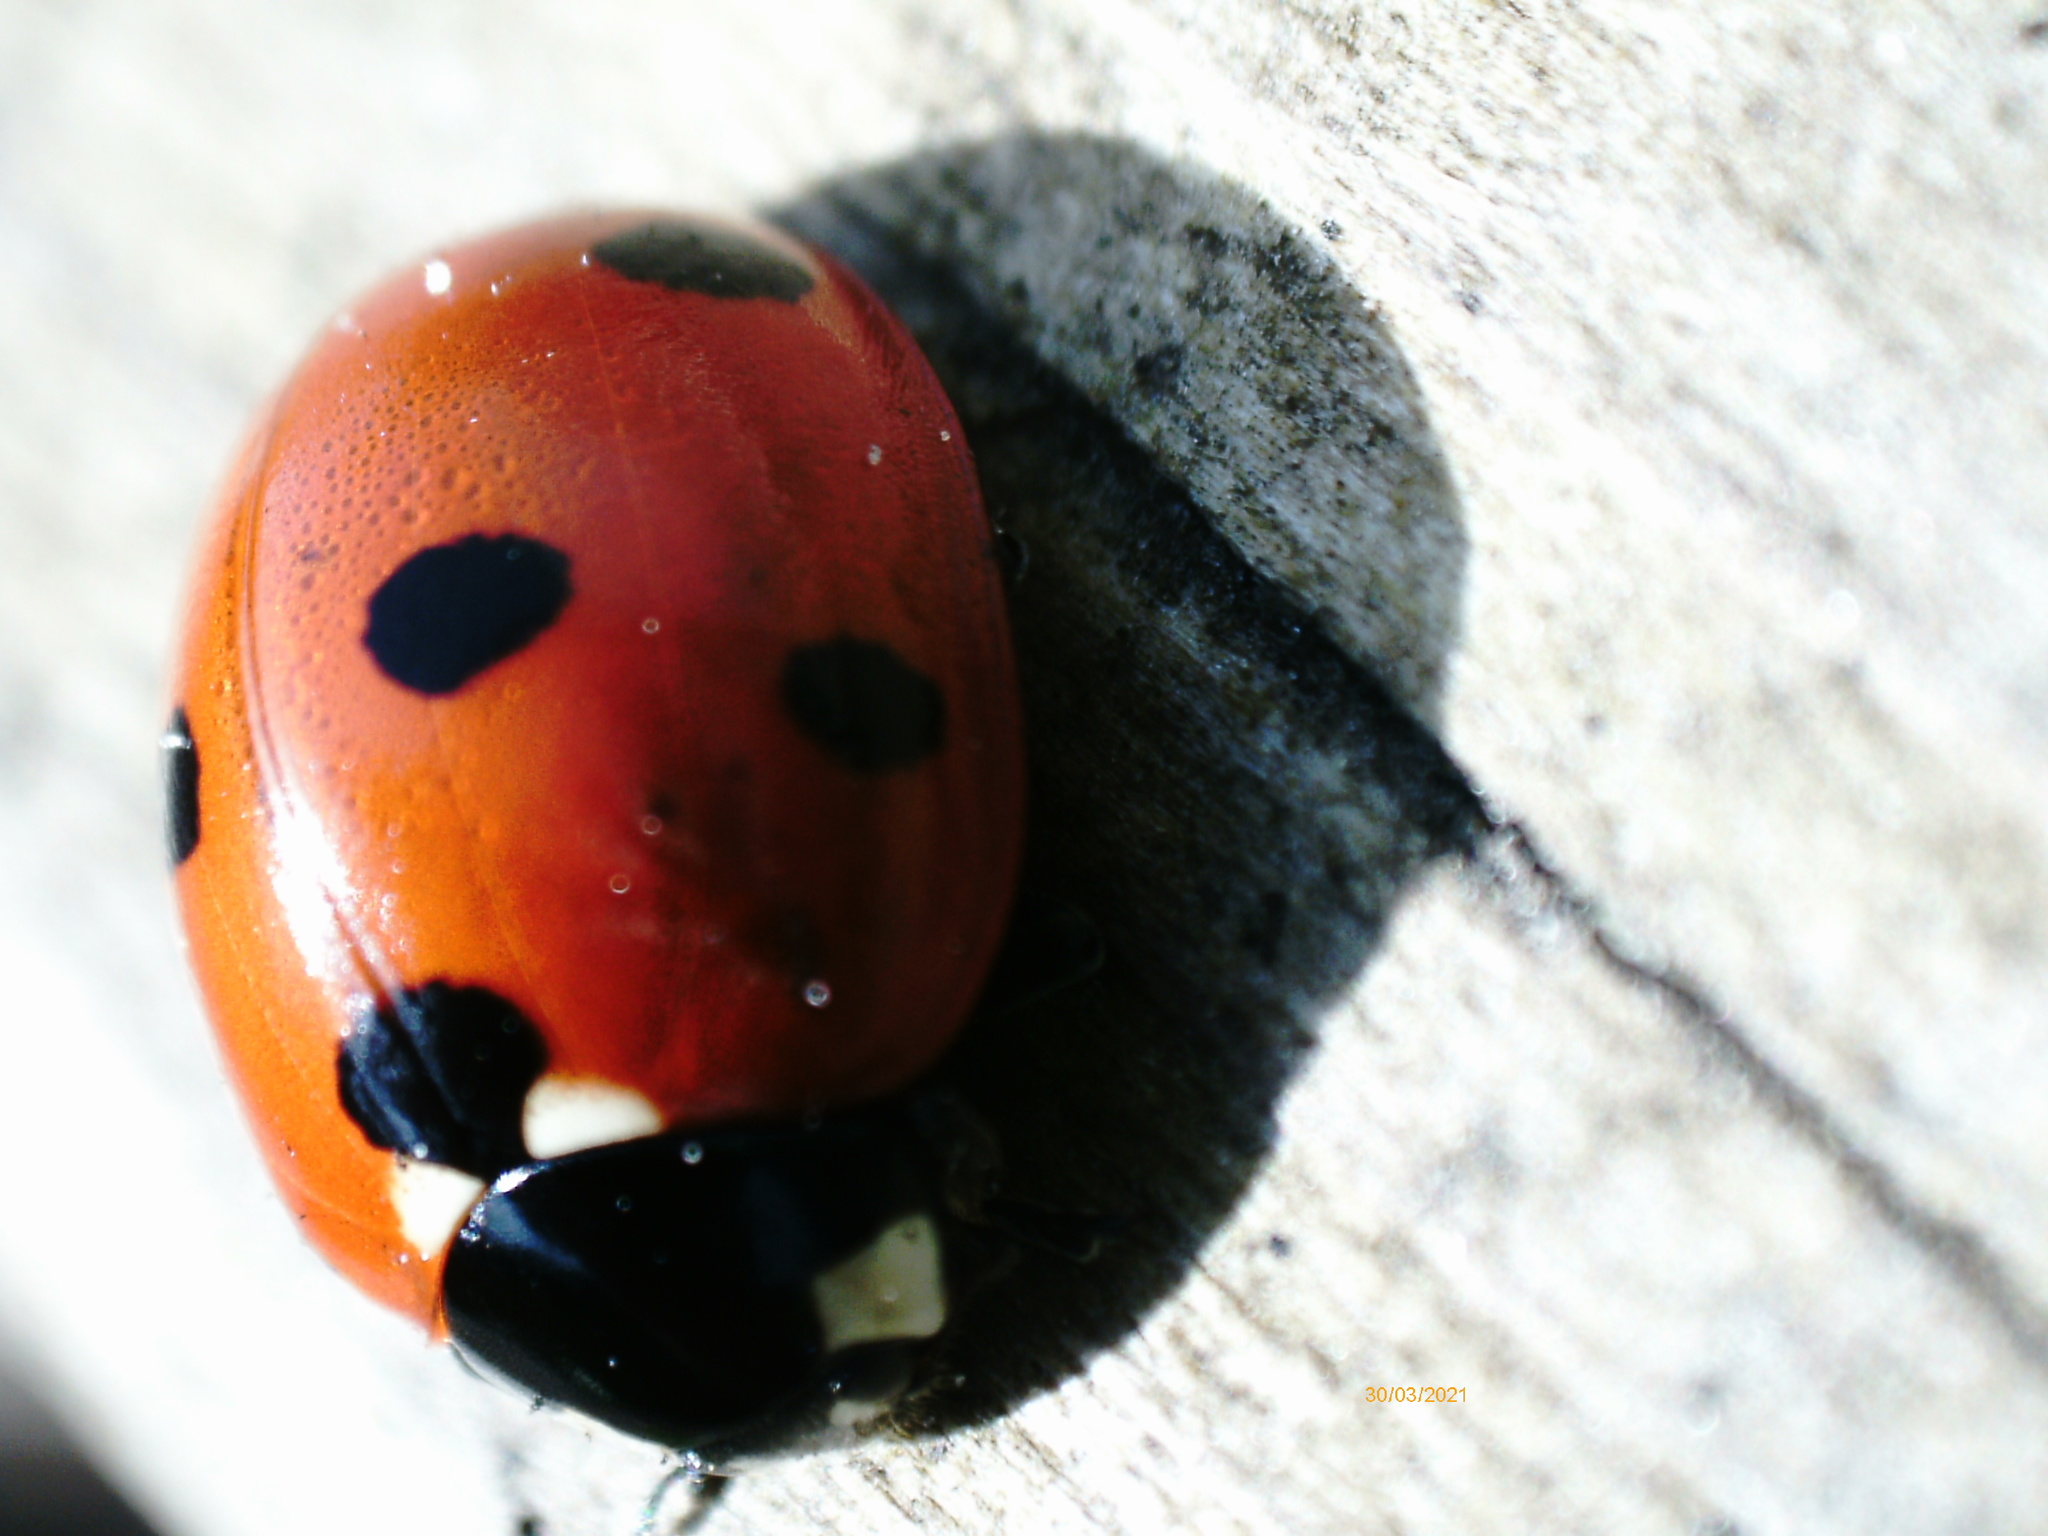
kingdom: Animalia
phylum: Arthropoda
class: Insecta
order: Coleoptera
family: Coccinellidae
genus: Coccinella
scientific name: Coccinella septempunctata
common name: Sevenspotted lady beetle
